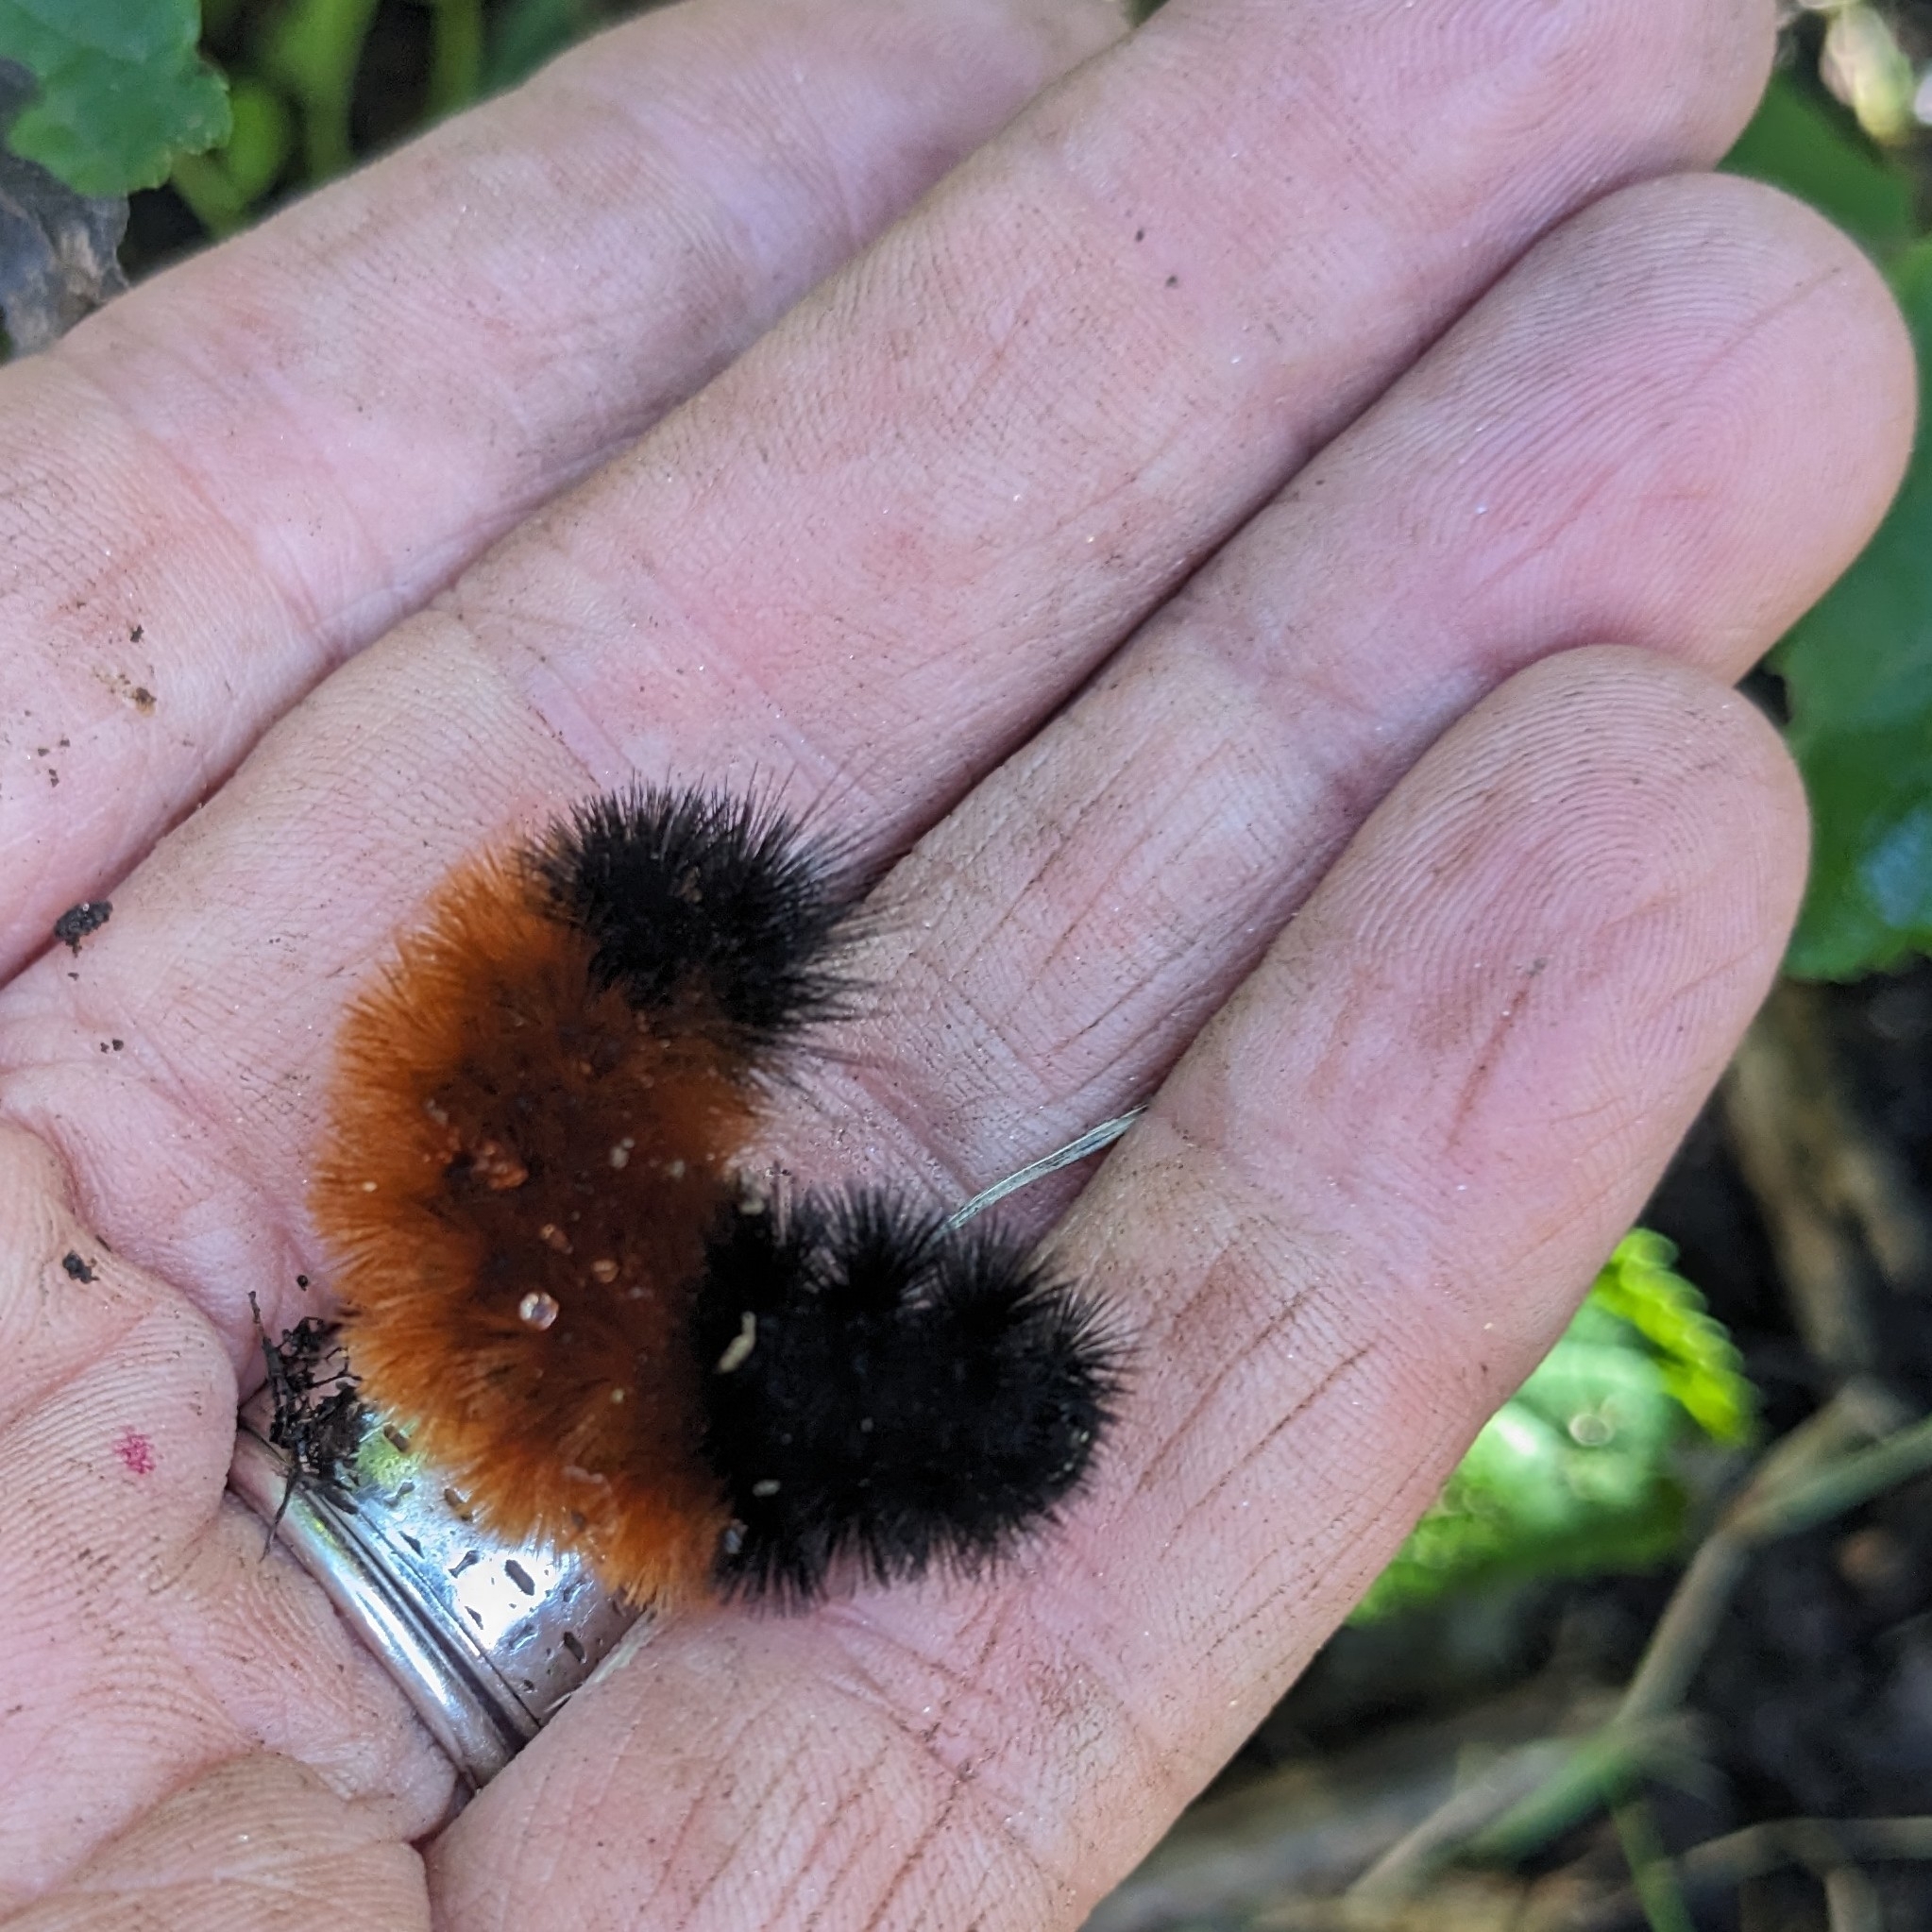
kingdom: Animalia
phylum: Arthropoda
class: Insecta
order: Lepidoptera
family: Erebidae
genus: Pyrrharctia
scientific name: Pyrrharctia isabella
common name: Isabella tiger moth
